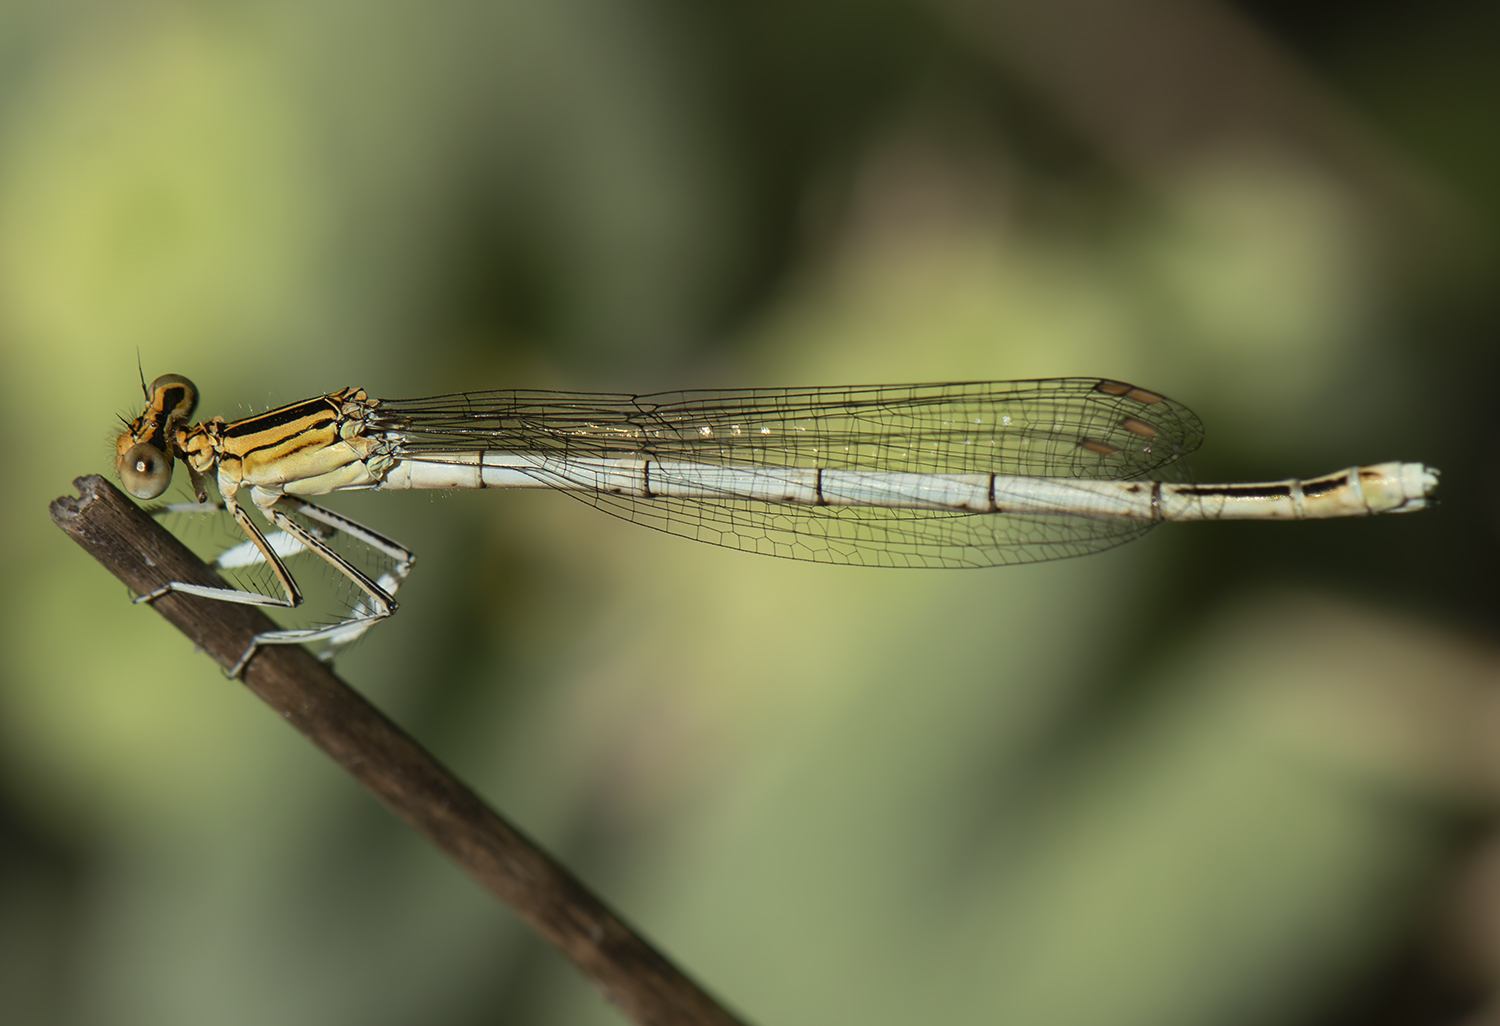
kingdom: Animalia
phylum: Arthropoda
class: Insecta
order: Odonata
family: Platycnemididae
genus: Platycnemis
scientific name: Platycnemis pennipes
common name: White-legged damselfly
